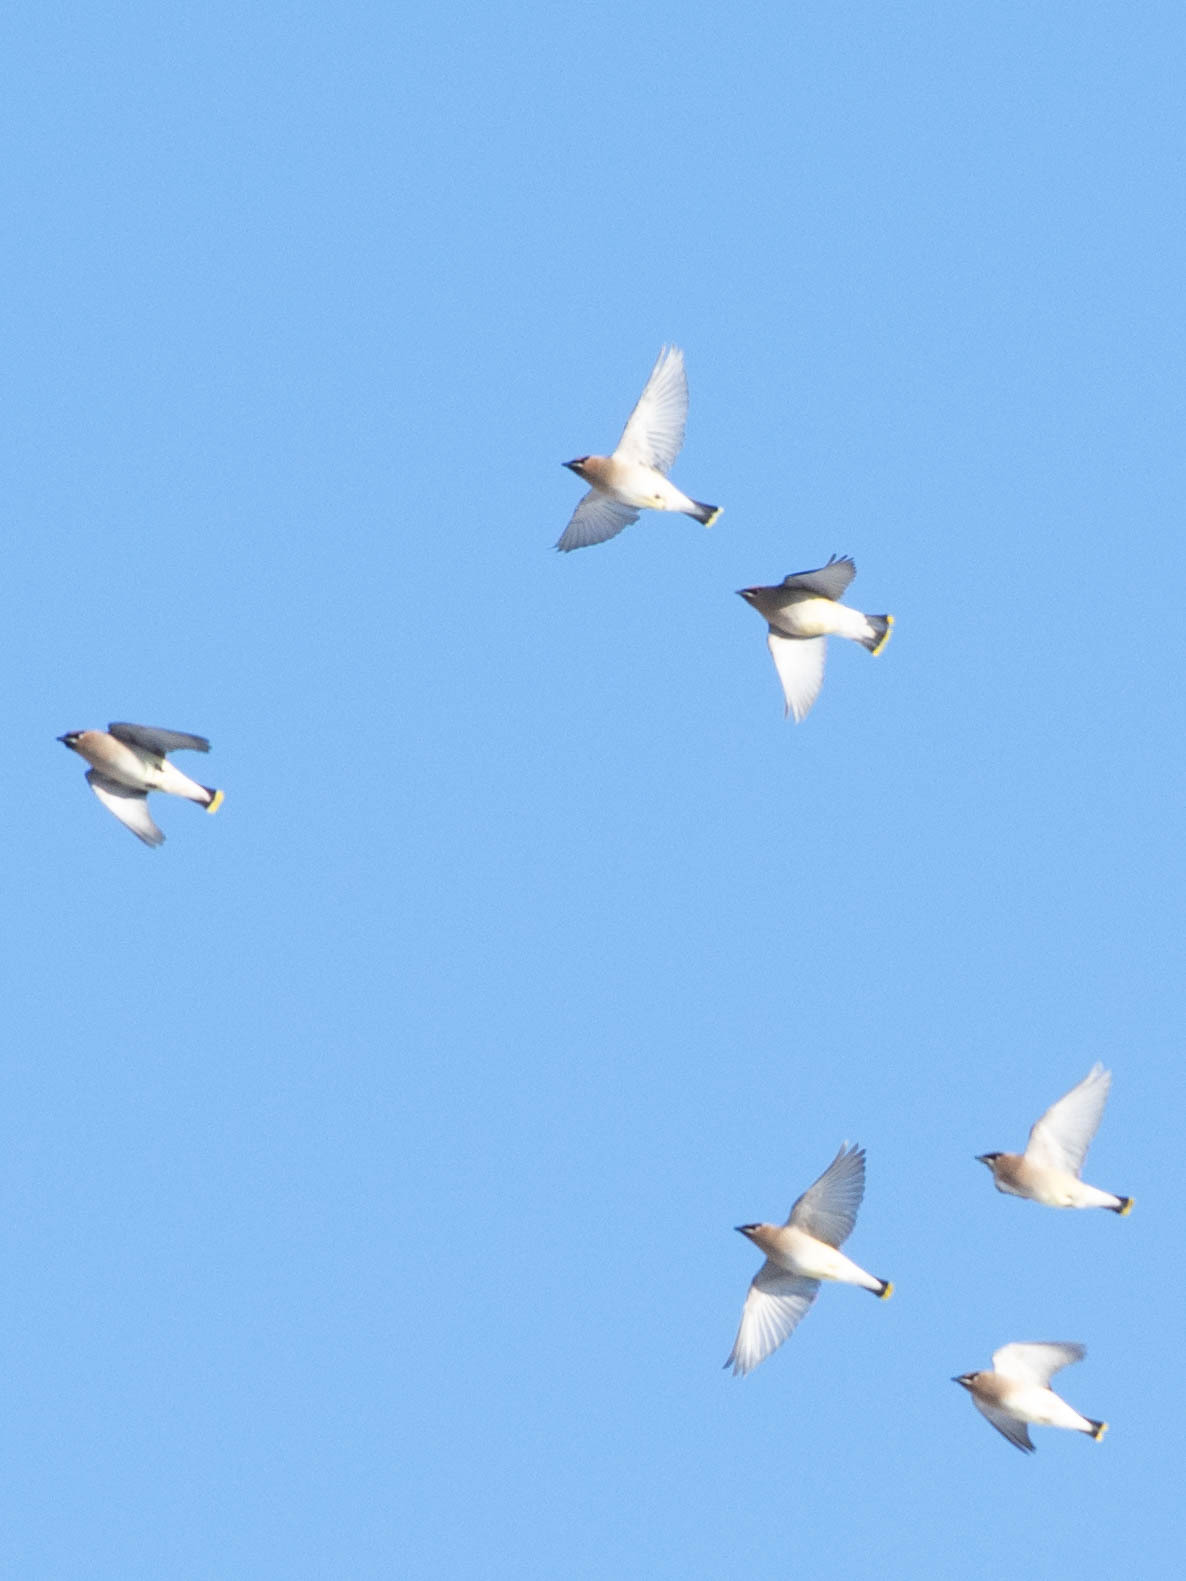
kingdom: Animalia
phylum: Chordata
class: Aves
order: Passeriformes
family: Bombycillidae
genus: Bombycilla
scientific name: Bombycilla cedrorum
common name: Cedar waxwing
